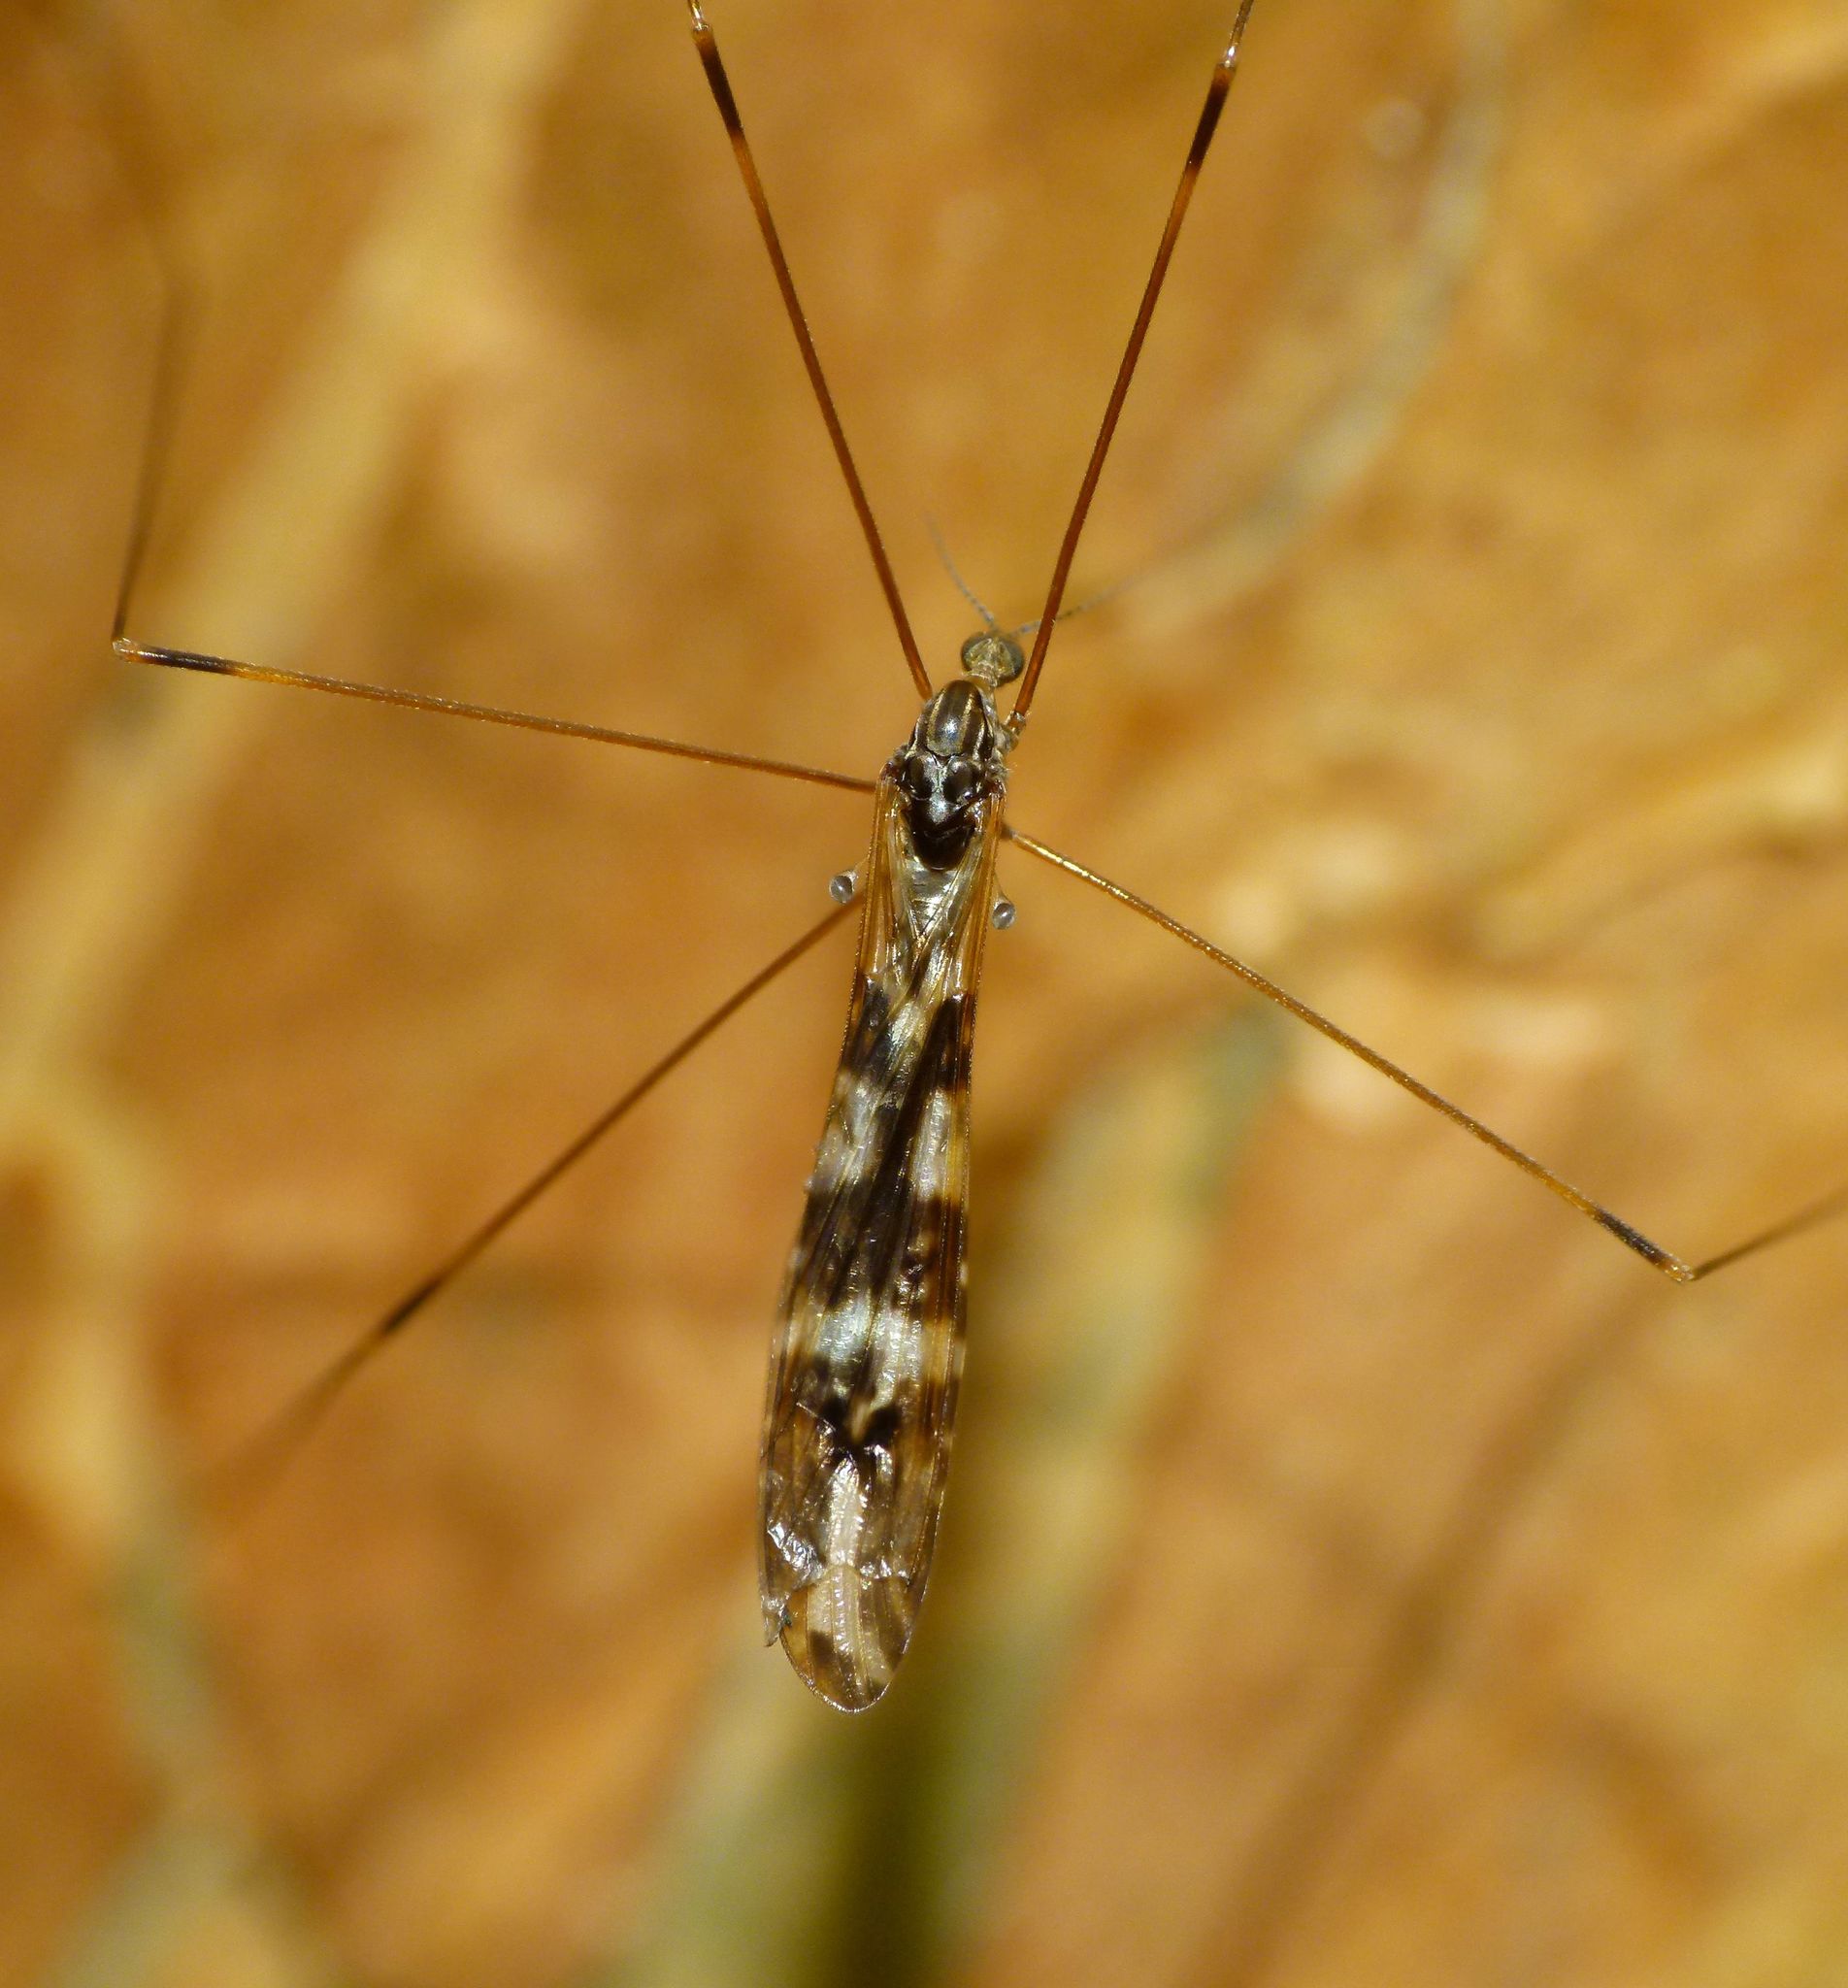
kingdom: Animalia
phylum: Arthropoda
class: Insecta
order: Diptera
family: Limoniidae
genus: Discobola
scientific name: Discobola dohrni
